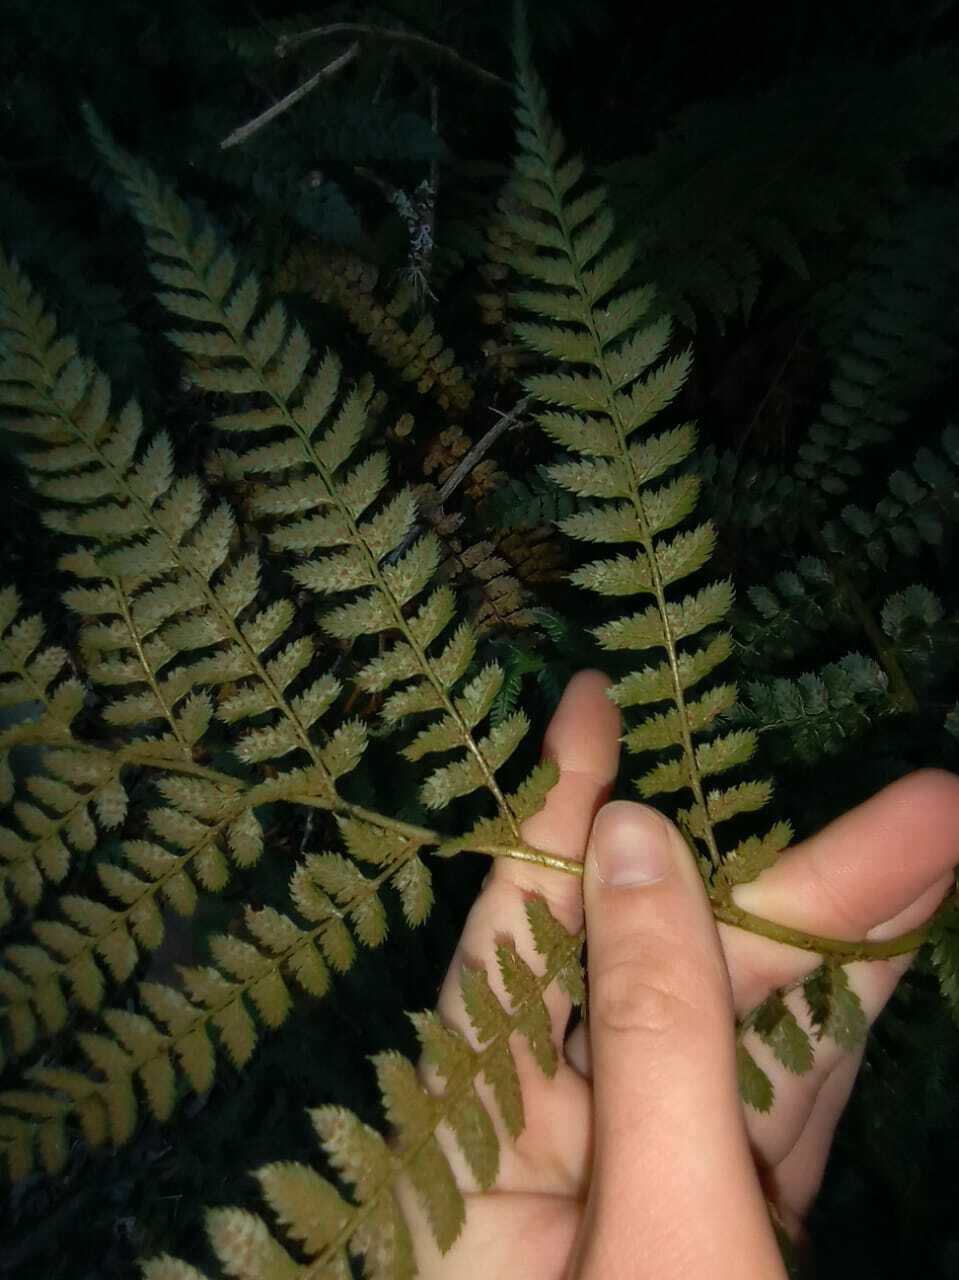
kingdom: Plantae
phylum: Tracheophyta
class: Polypodiopsida
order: Polypodiales
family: Dryopteridaceae
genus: Polystichum
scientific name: Polystichum pungens
